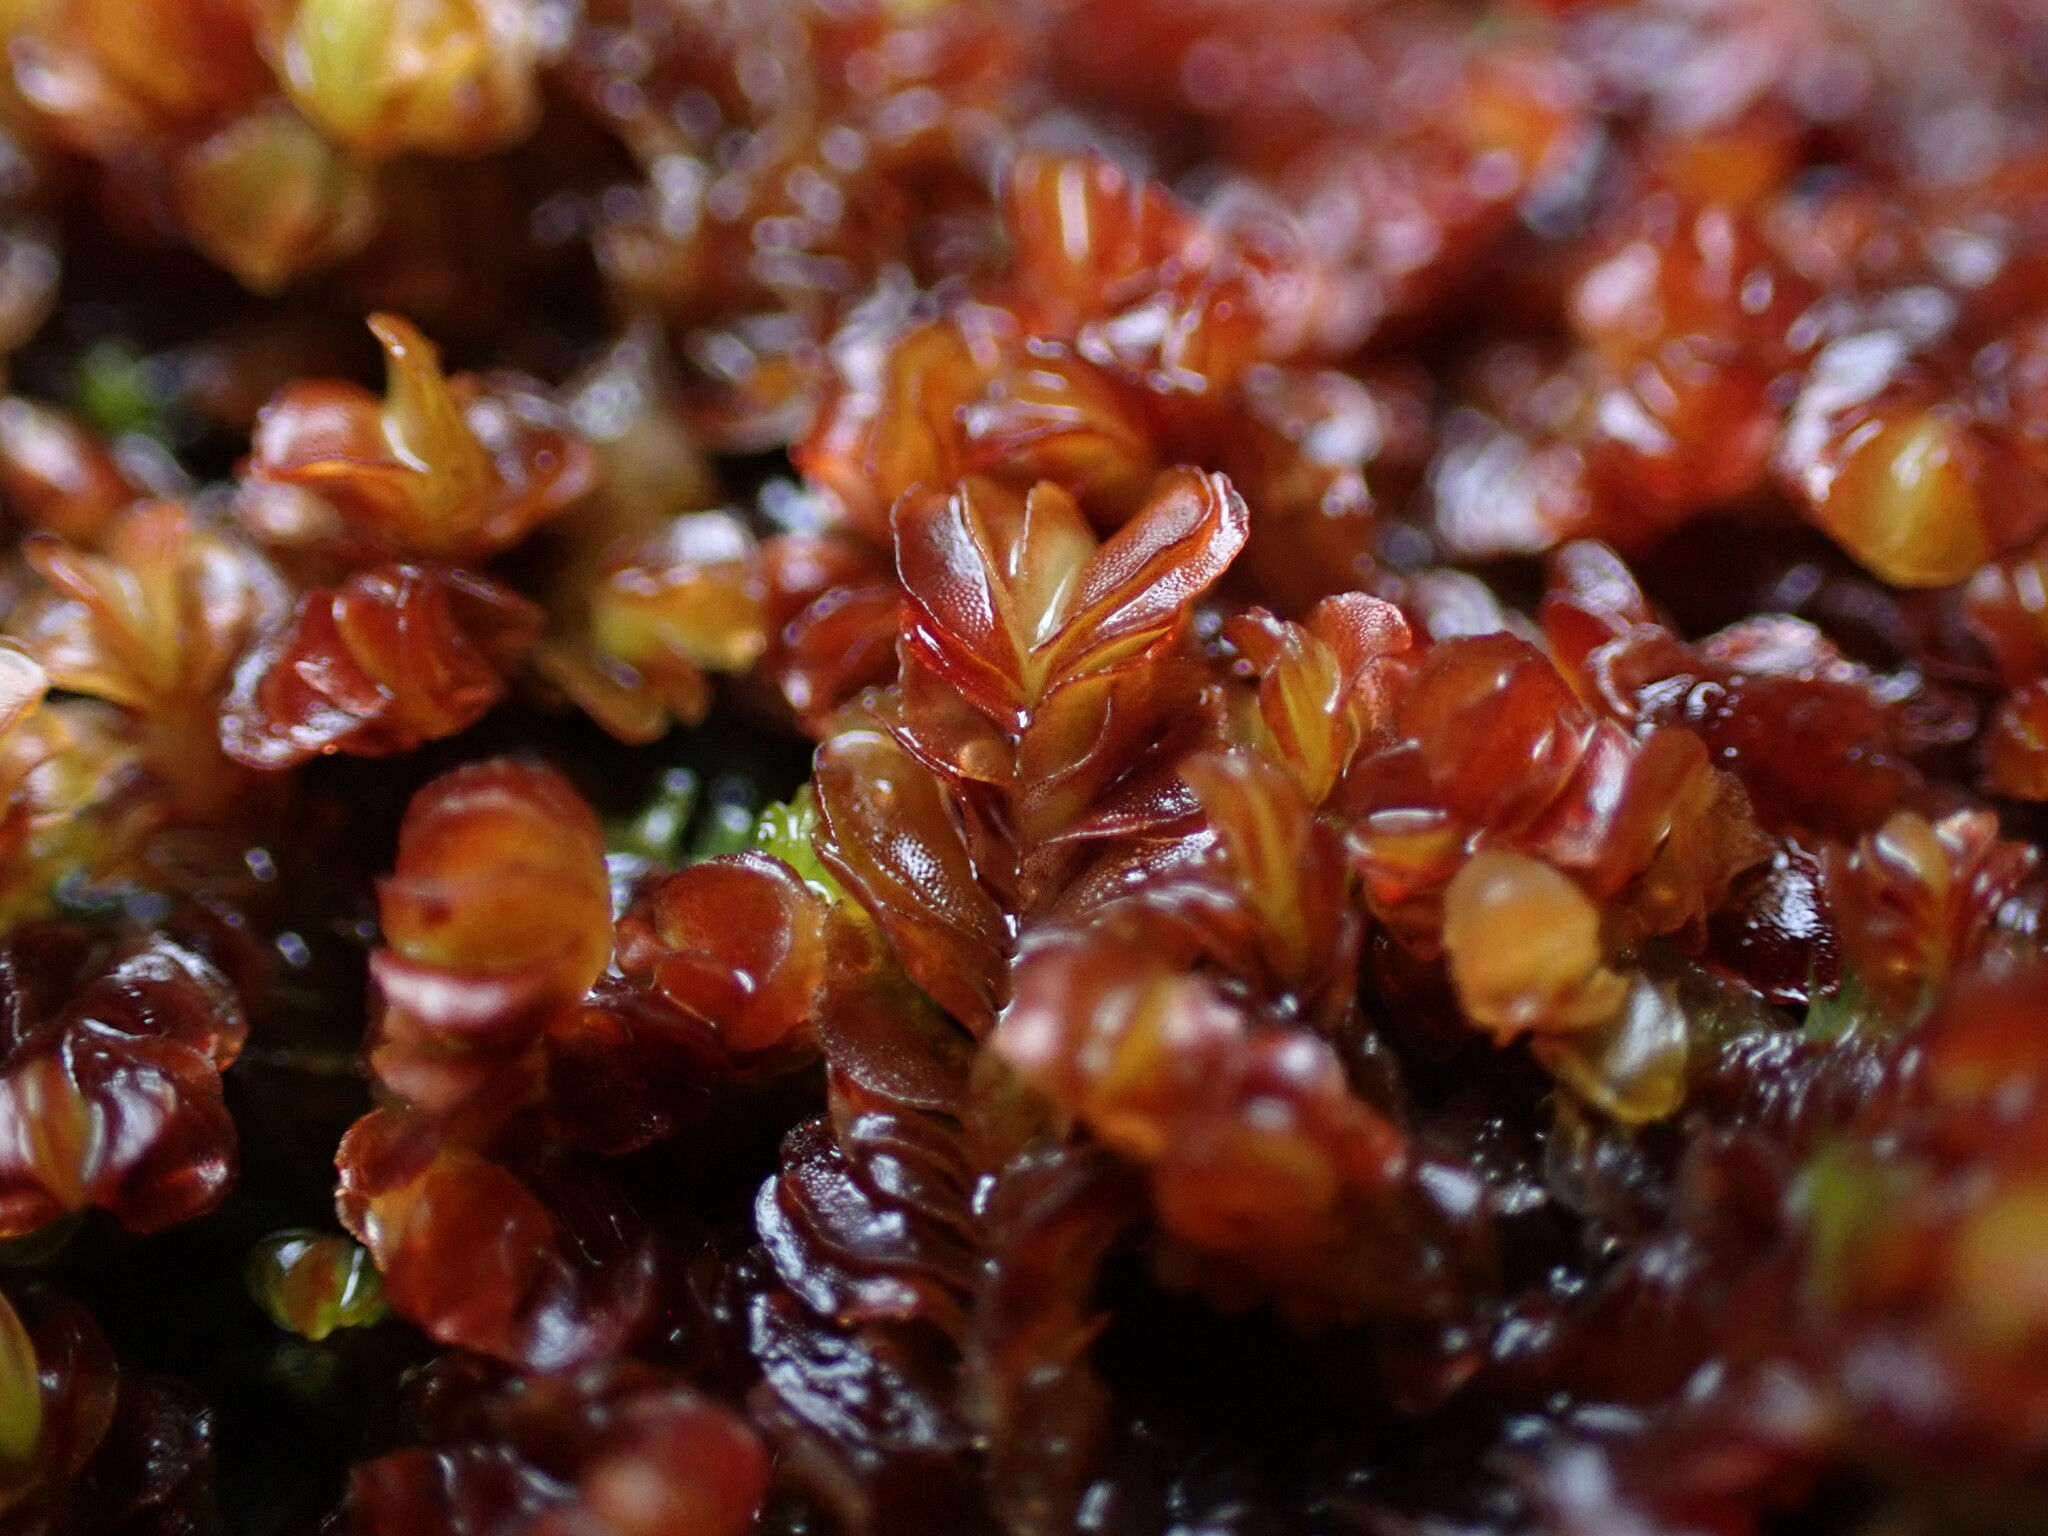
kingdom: Plantae
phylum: Marchantiophyta
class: Jungermanniopsida
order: Jungermanniales
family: Myliaceae
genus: Mylia
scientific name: Mylia taylorii
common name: Taylor s flapwort
